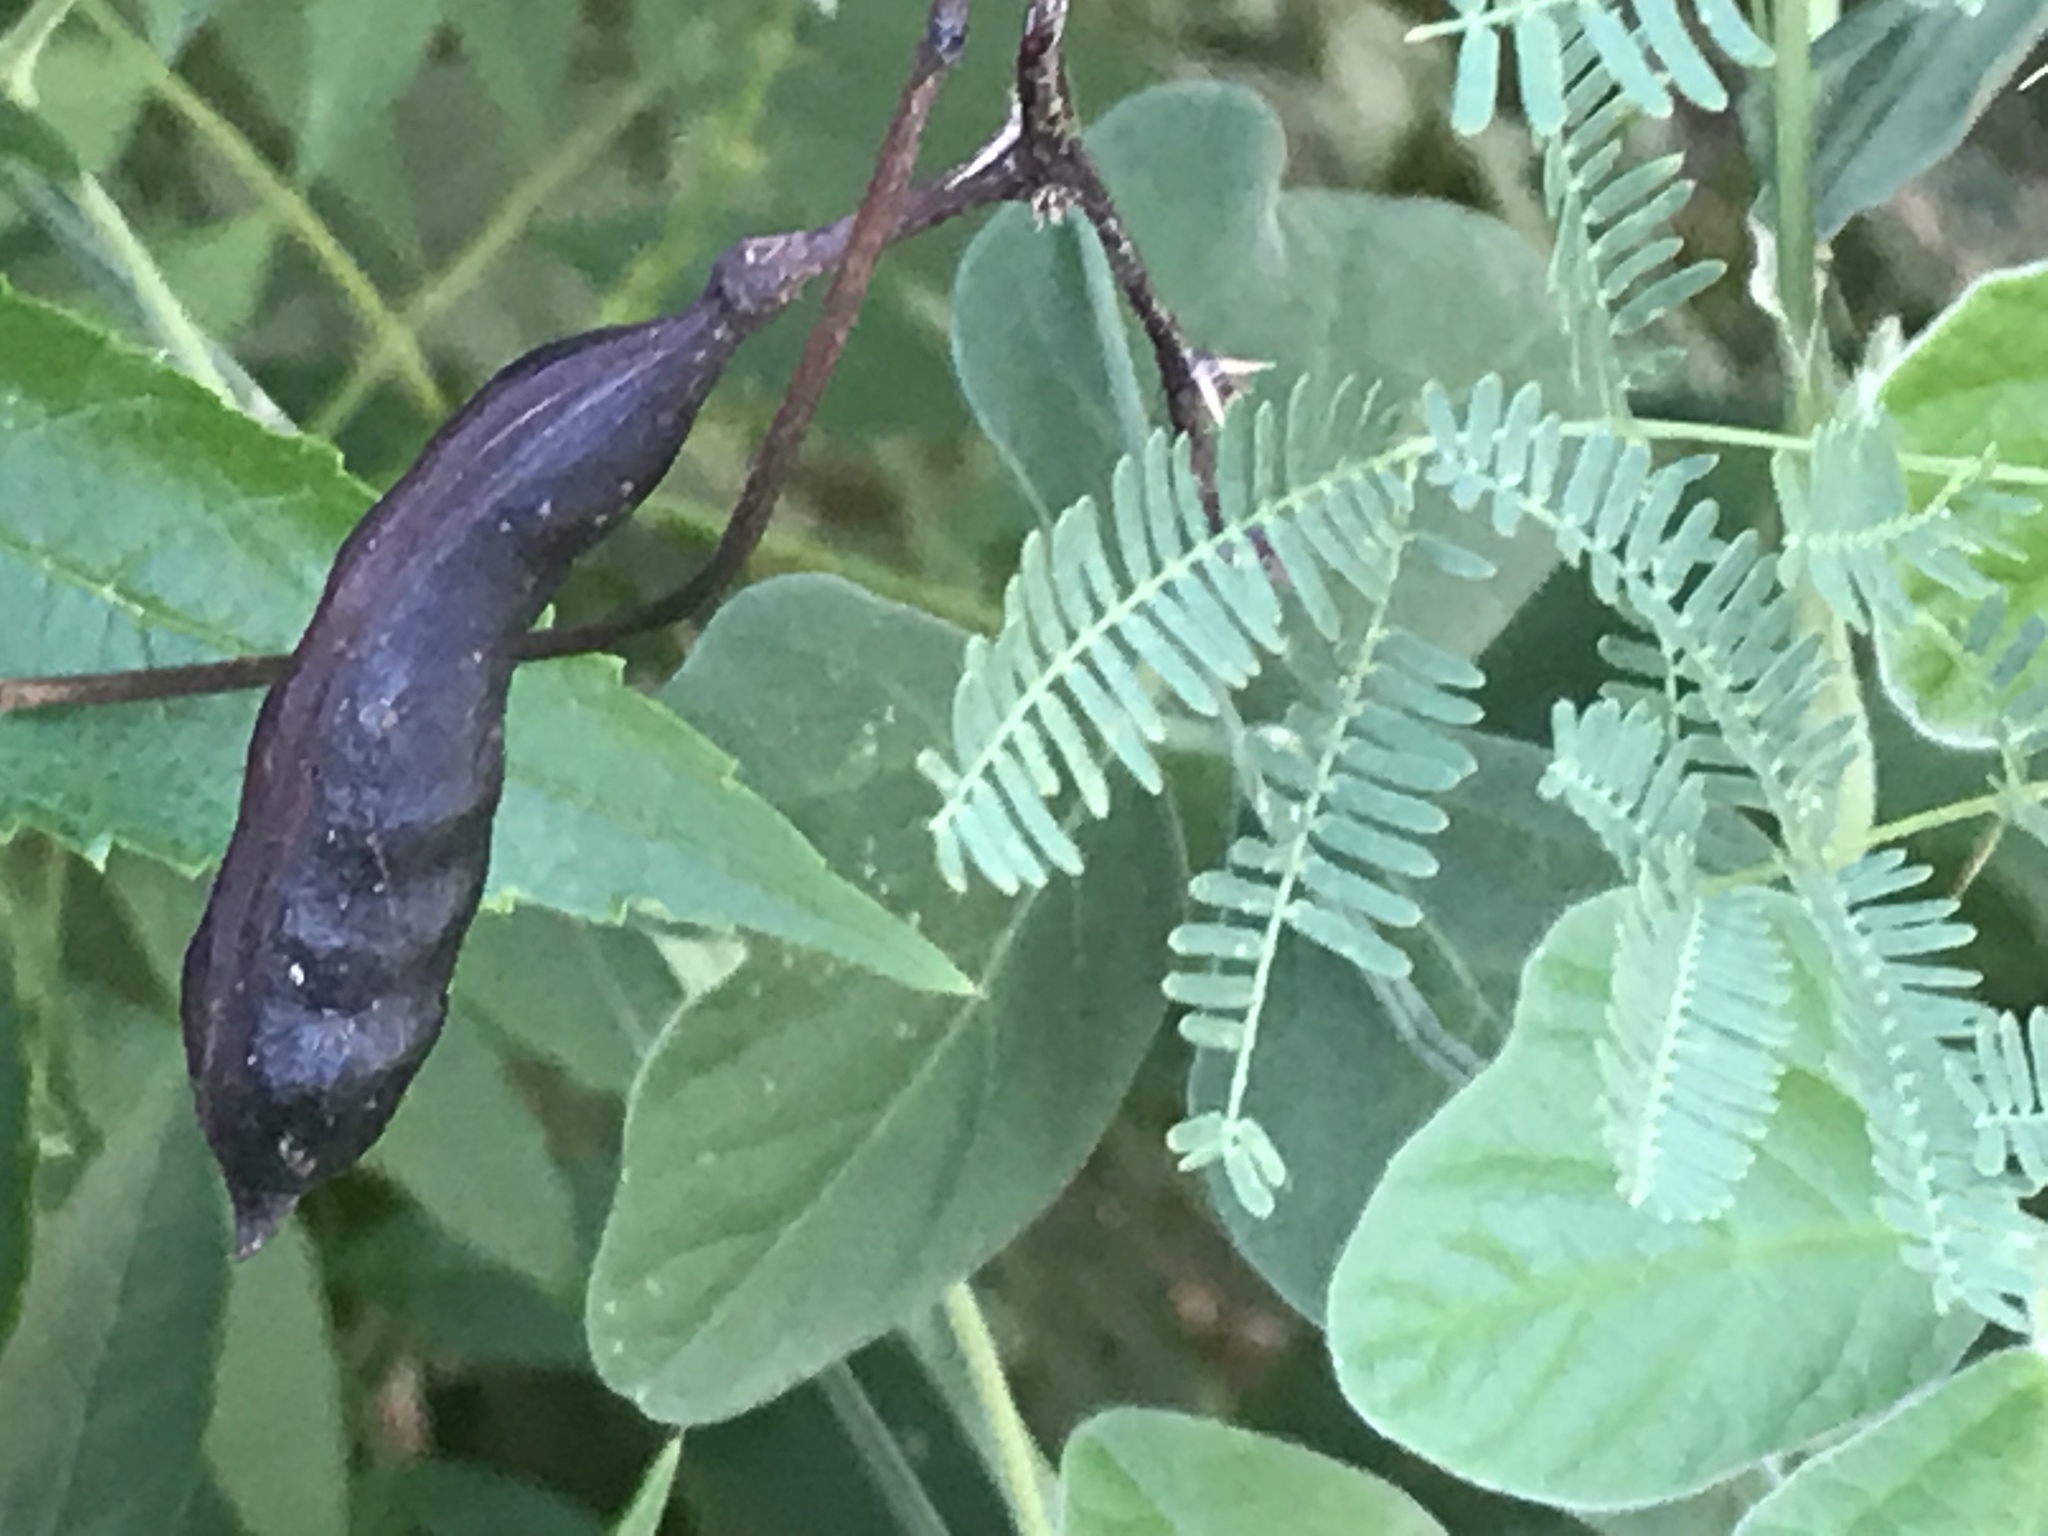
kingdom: Plantae
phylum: Tracheophyta
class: Magnoliopsida
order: Fabales
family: Fabaceae
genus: Vachellia
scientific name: Vachellia farnesiana
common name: Sweet acacia
